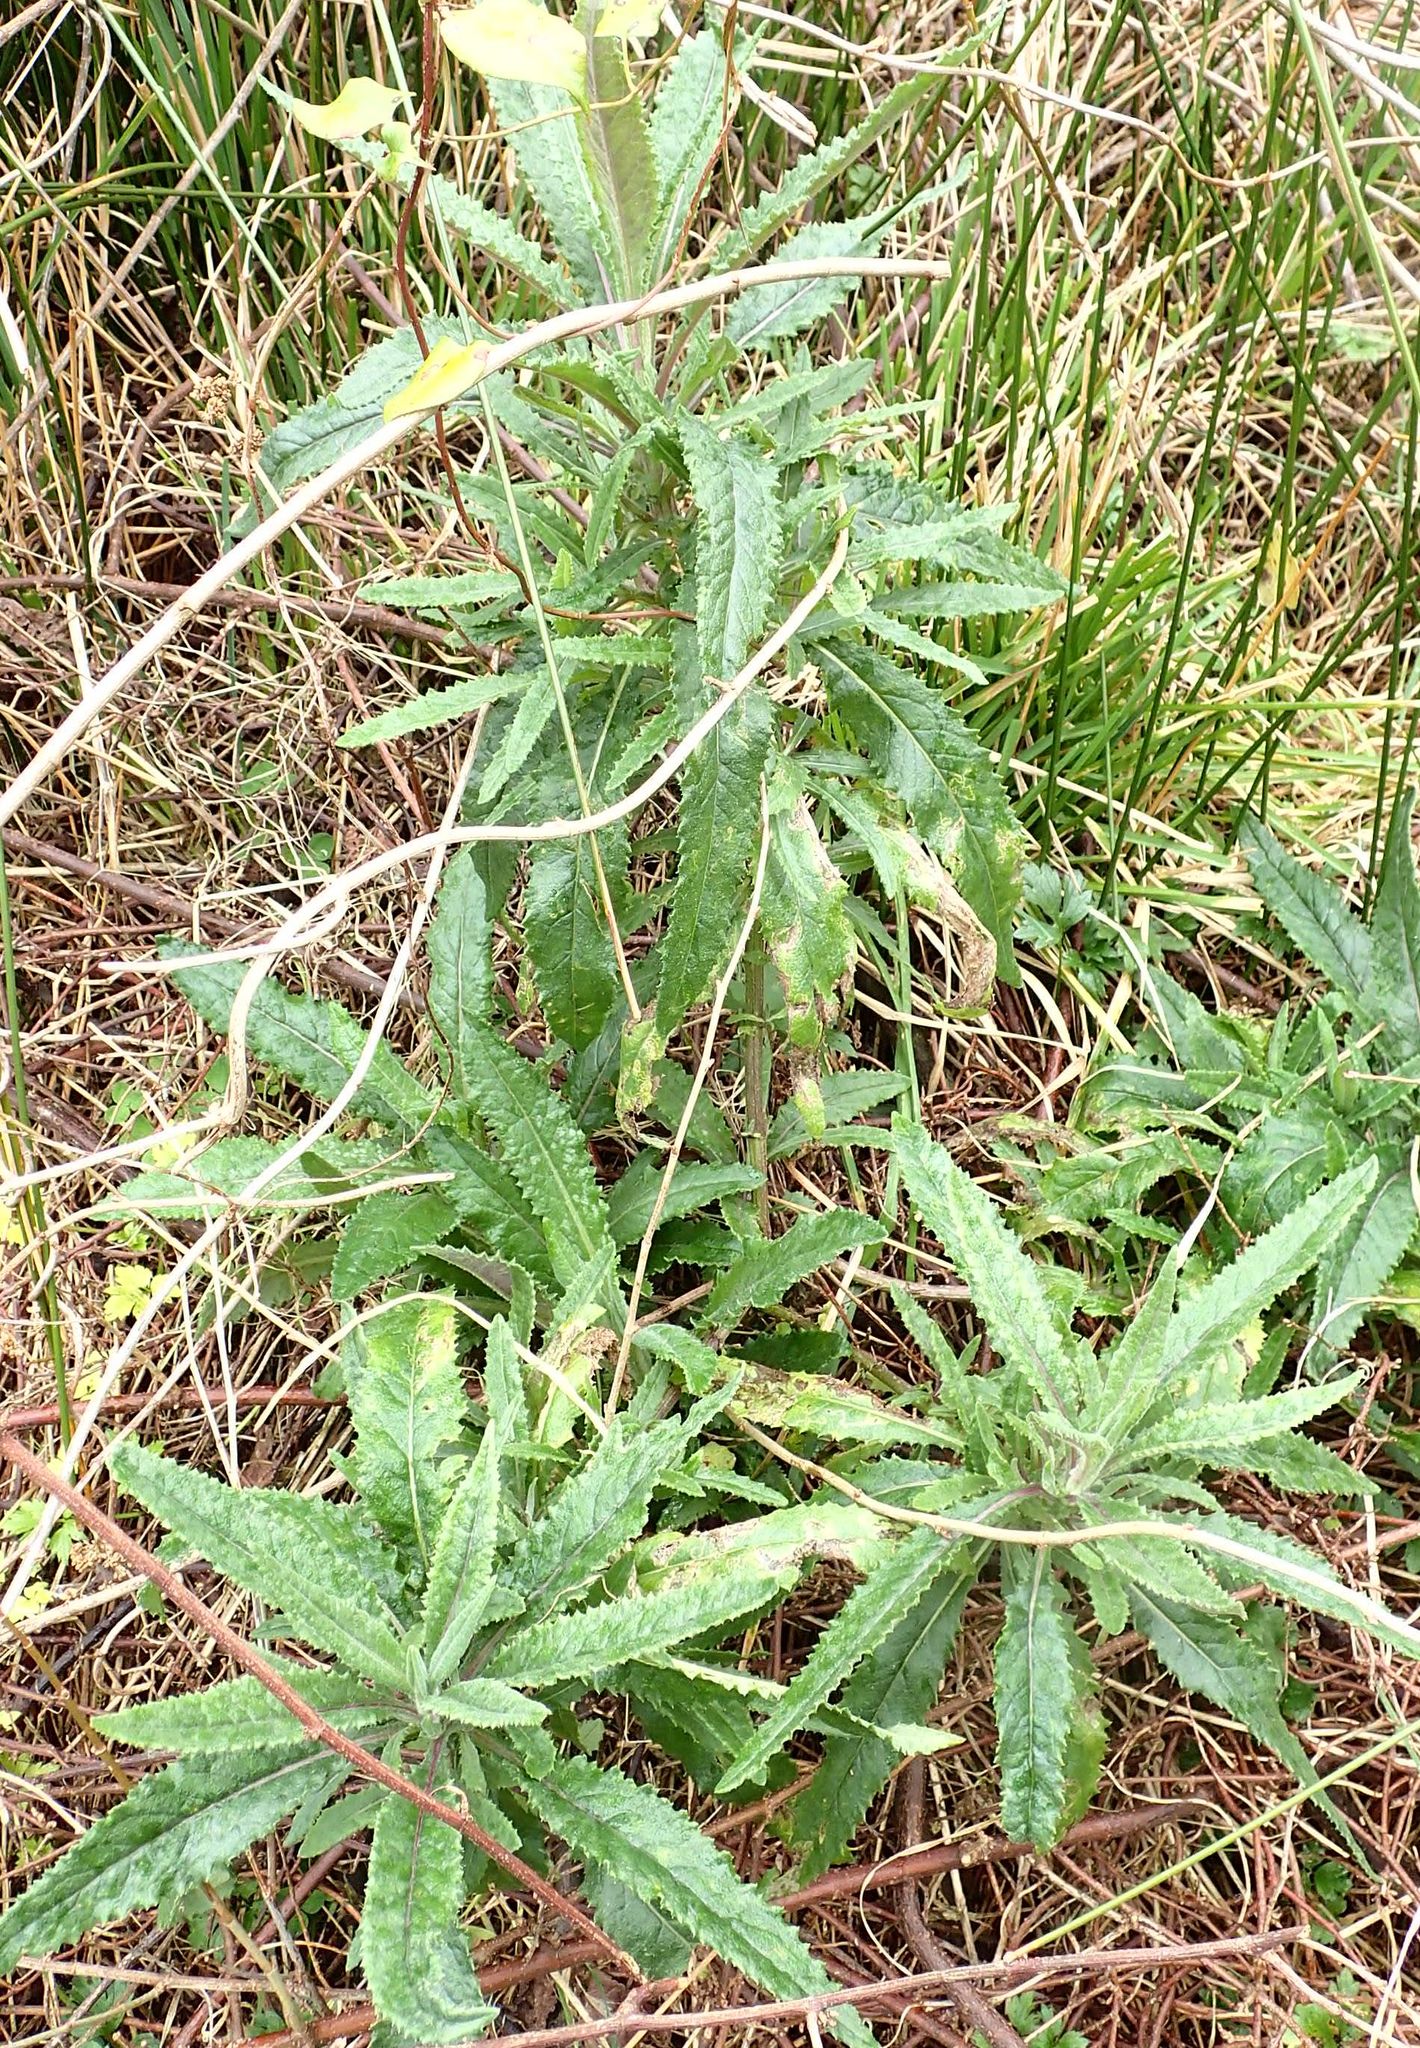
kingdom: Plantae
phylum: Tracheophyta
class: Magnoliopsida
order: Asterales
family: Asteraceae
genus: Senecio
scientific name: Senecio minimus
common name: Toothed fireweed
